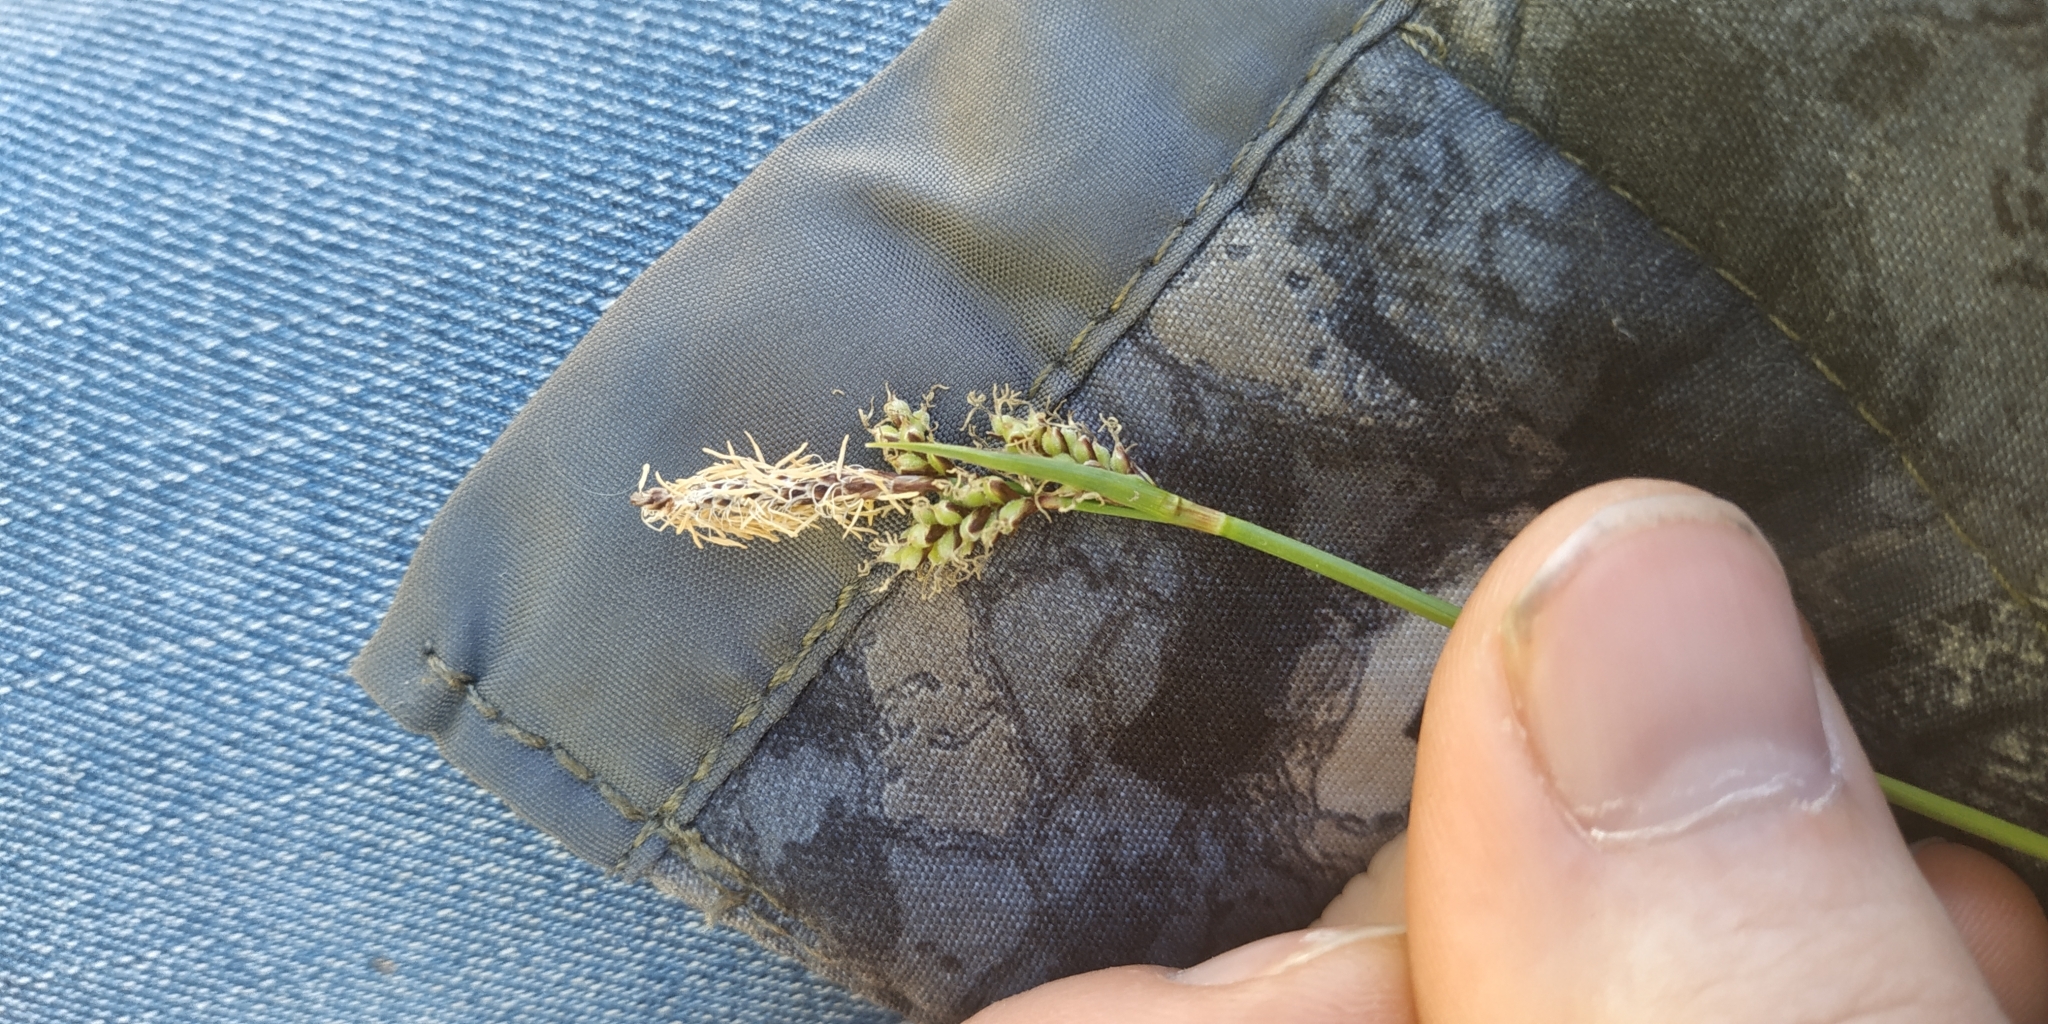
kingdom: Plantae
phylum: Tracheophyta
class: Liliopsida
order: Poales
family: Cyperaceae
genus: Carex
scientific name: Carex ericetorum
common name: Rare spring-sedge
